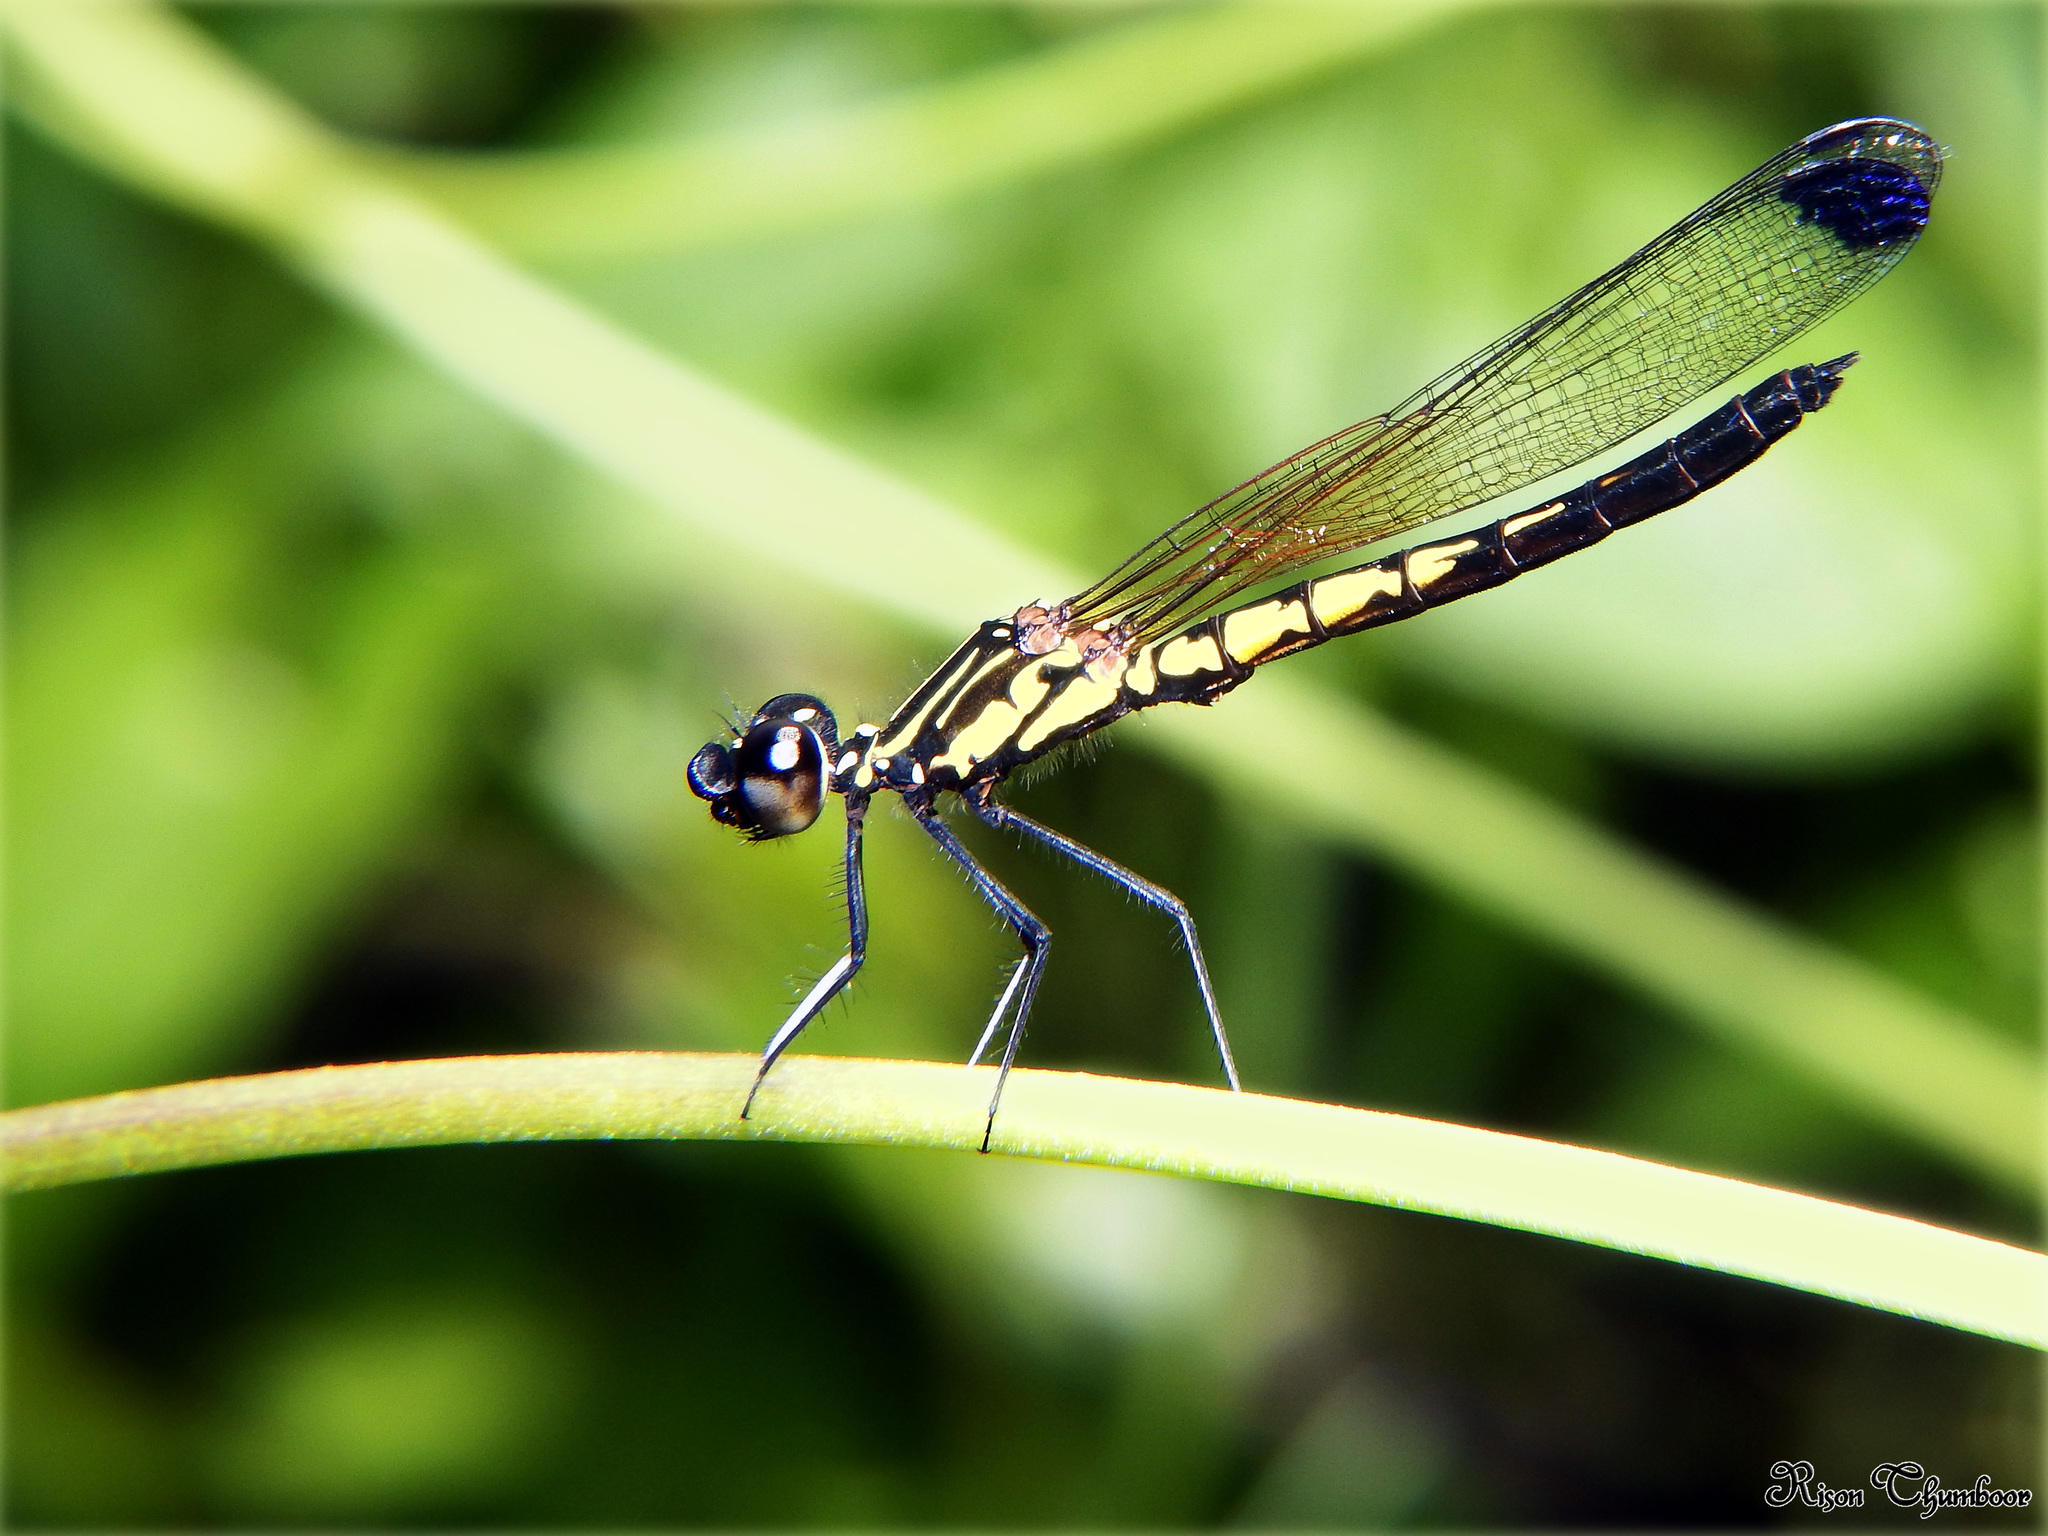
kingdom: Animalia
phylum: Arthropoda
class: Insecta
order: Odonata
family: Chlorocyphidae
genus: Libellago
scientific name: Libellago indica
